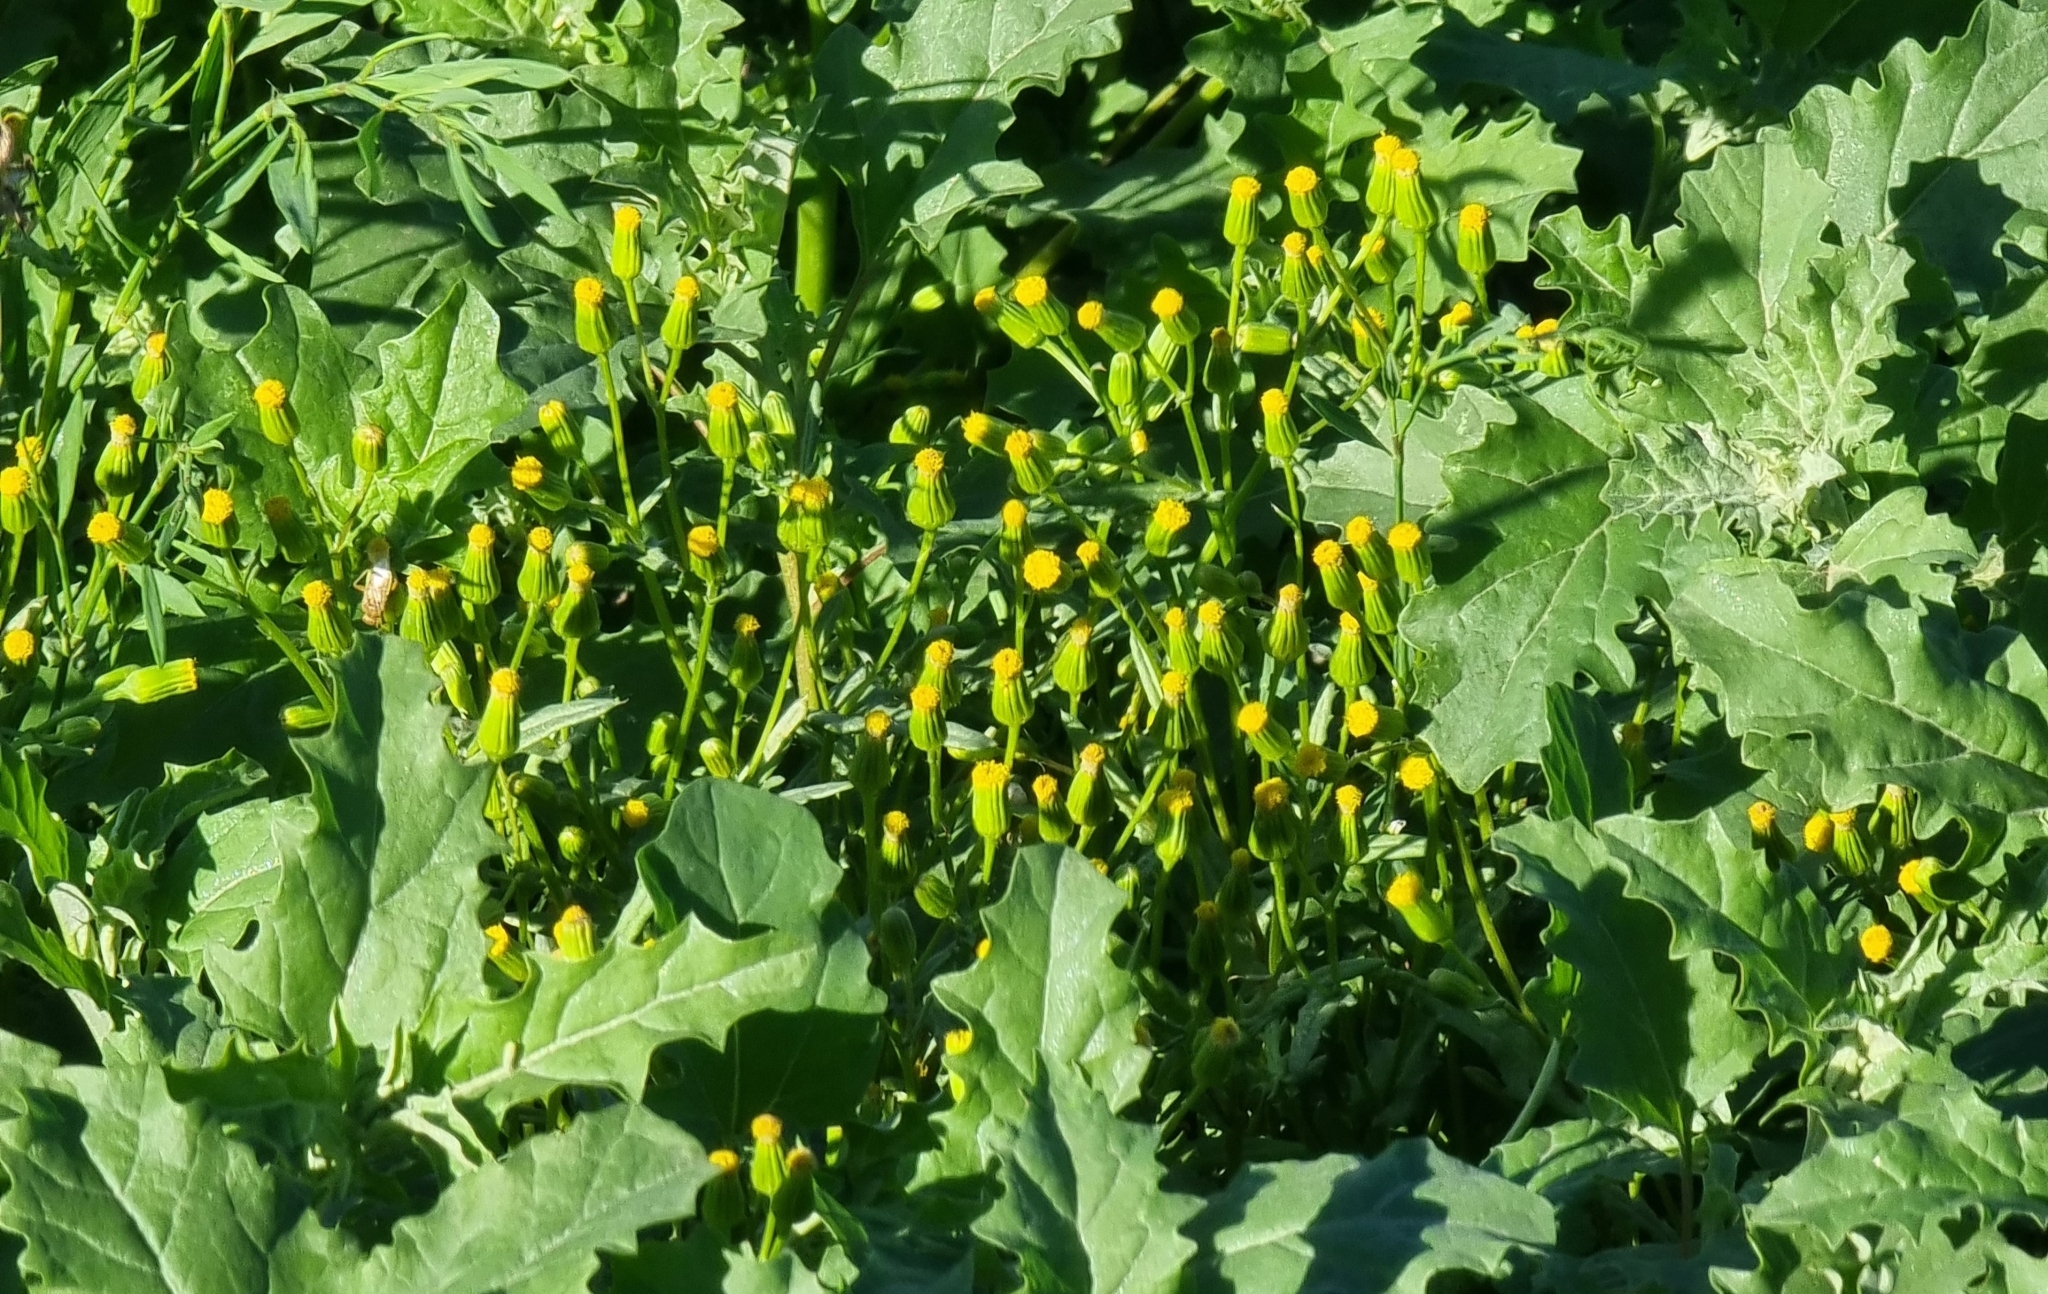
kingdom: Plantae
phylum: Tracheophyta
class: Magnoliopsida
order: Asterales
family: Asteraceae
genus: Senecio
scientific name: Senecio dubitabilis
